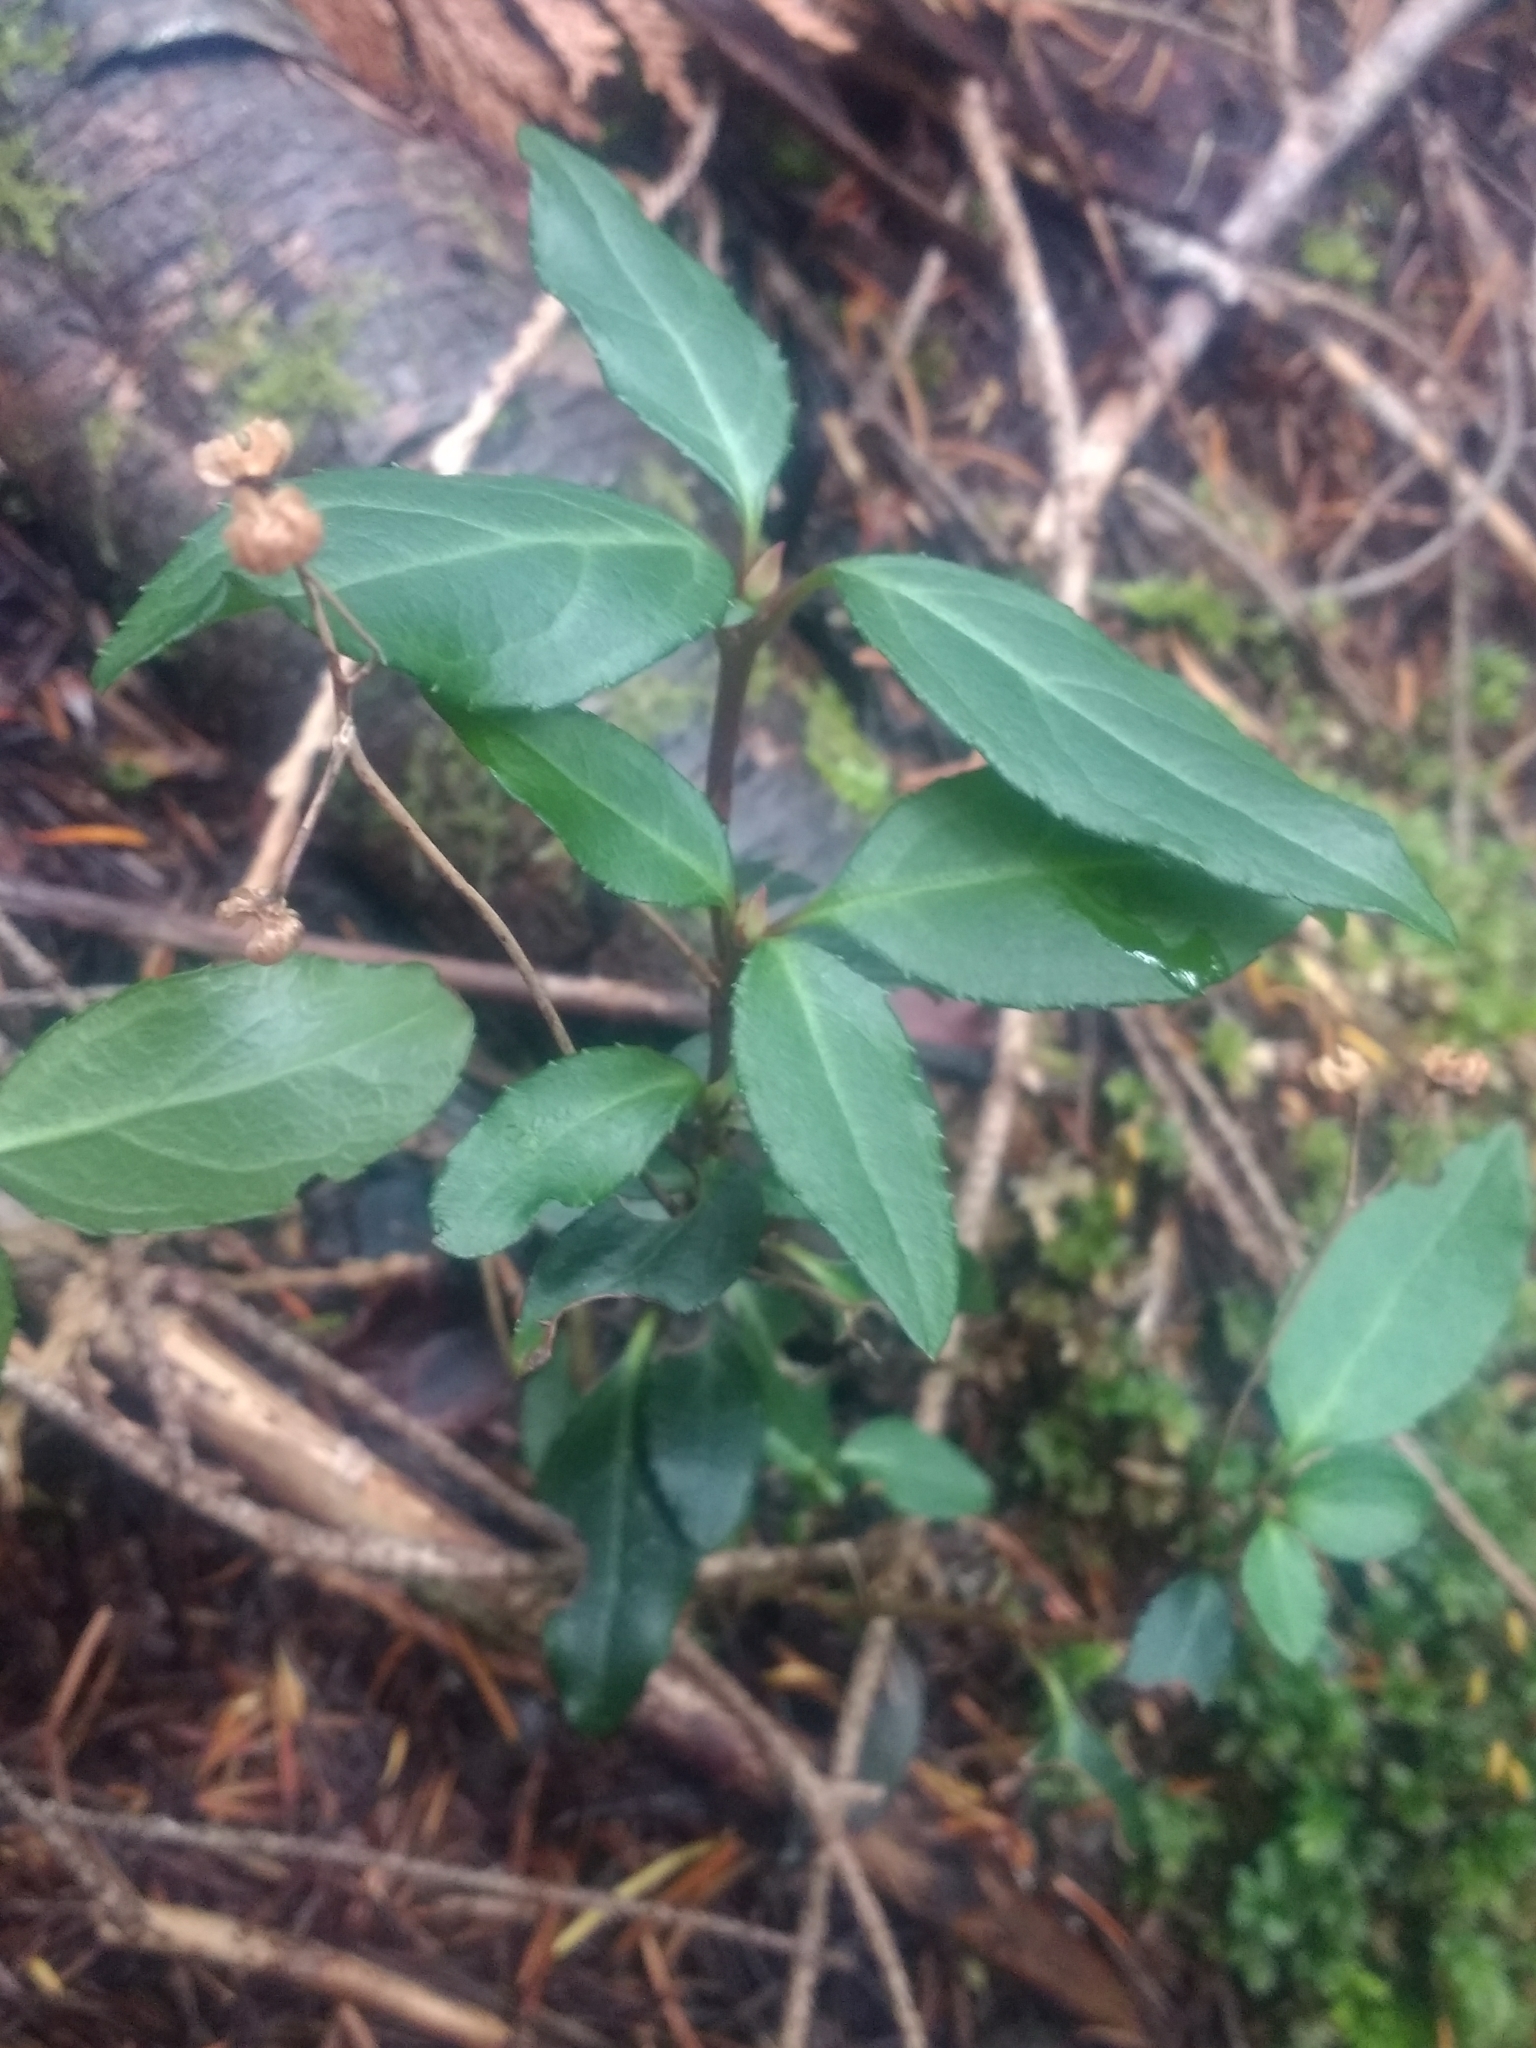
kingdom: Plantae
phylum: Tracheophyta
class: Magnoliopsida
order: Ericales
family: Ericaceae
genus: Chimaphila
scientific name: Chimaphila menziesii
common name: Menzies' pipsissewa
